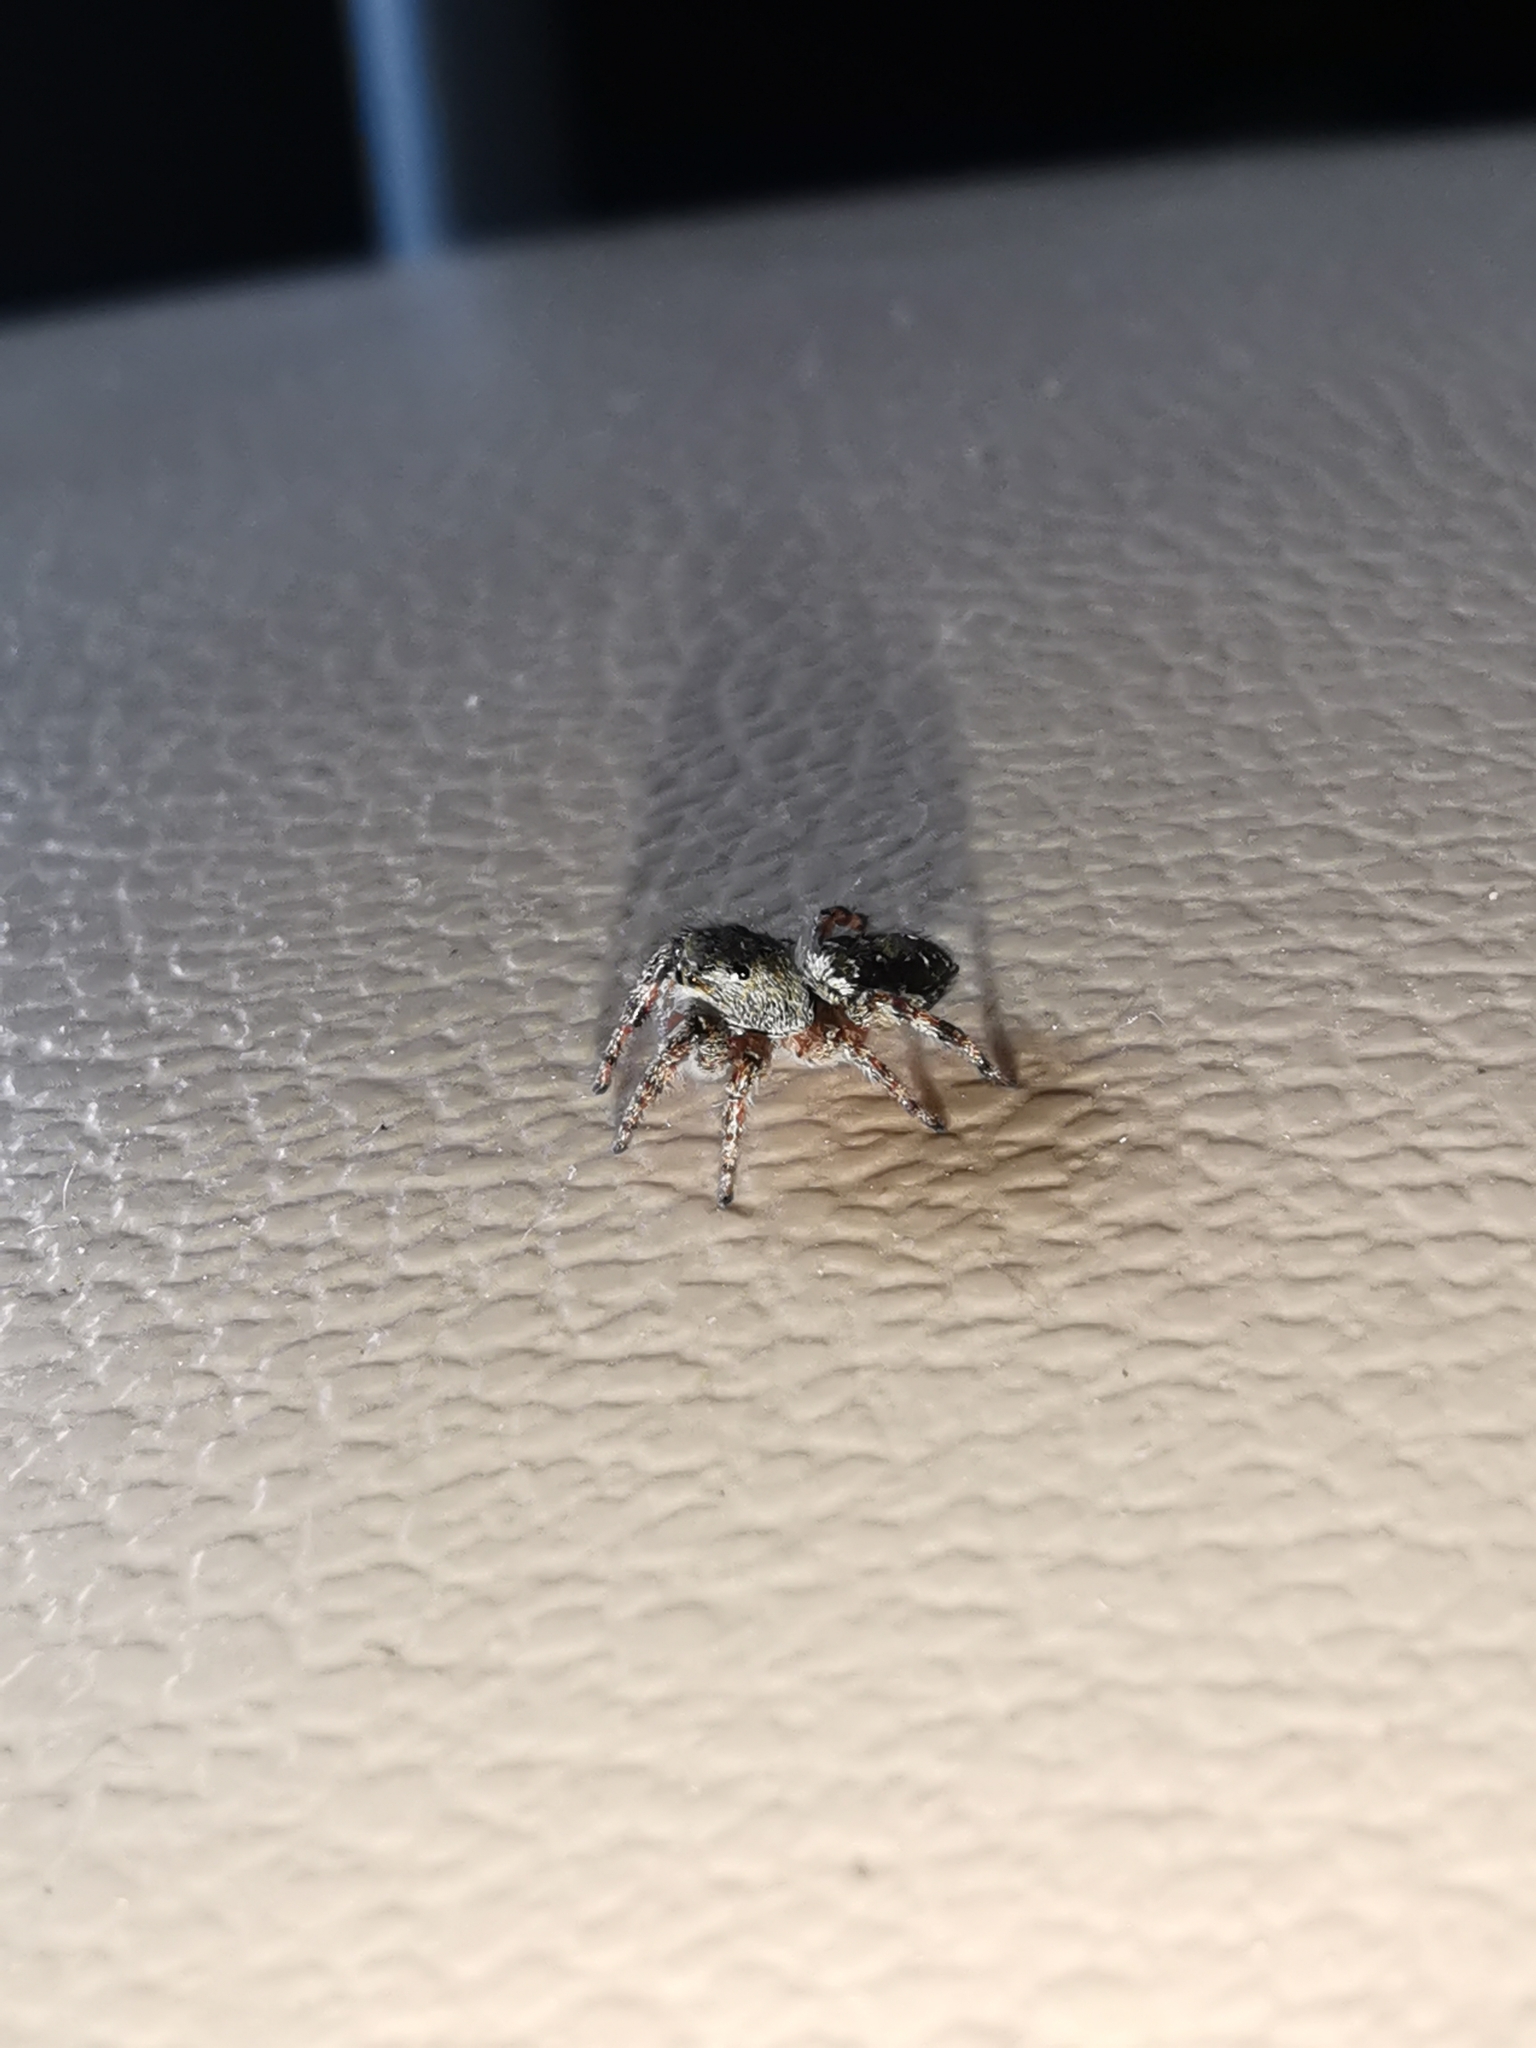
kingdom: Animalia
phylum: Arthropoda
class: Arachnida
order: Araneae
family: Salticidae
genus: Dendryphantes
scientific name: Dendryphantes rudis
